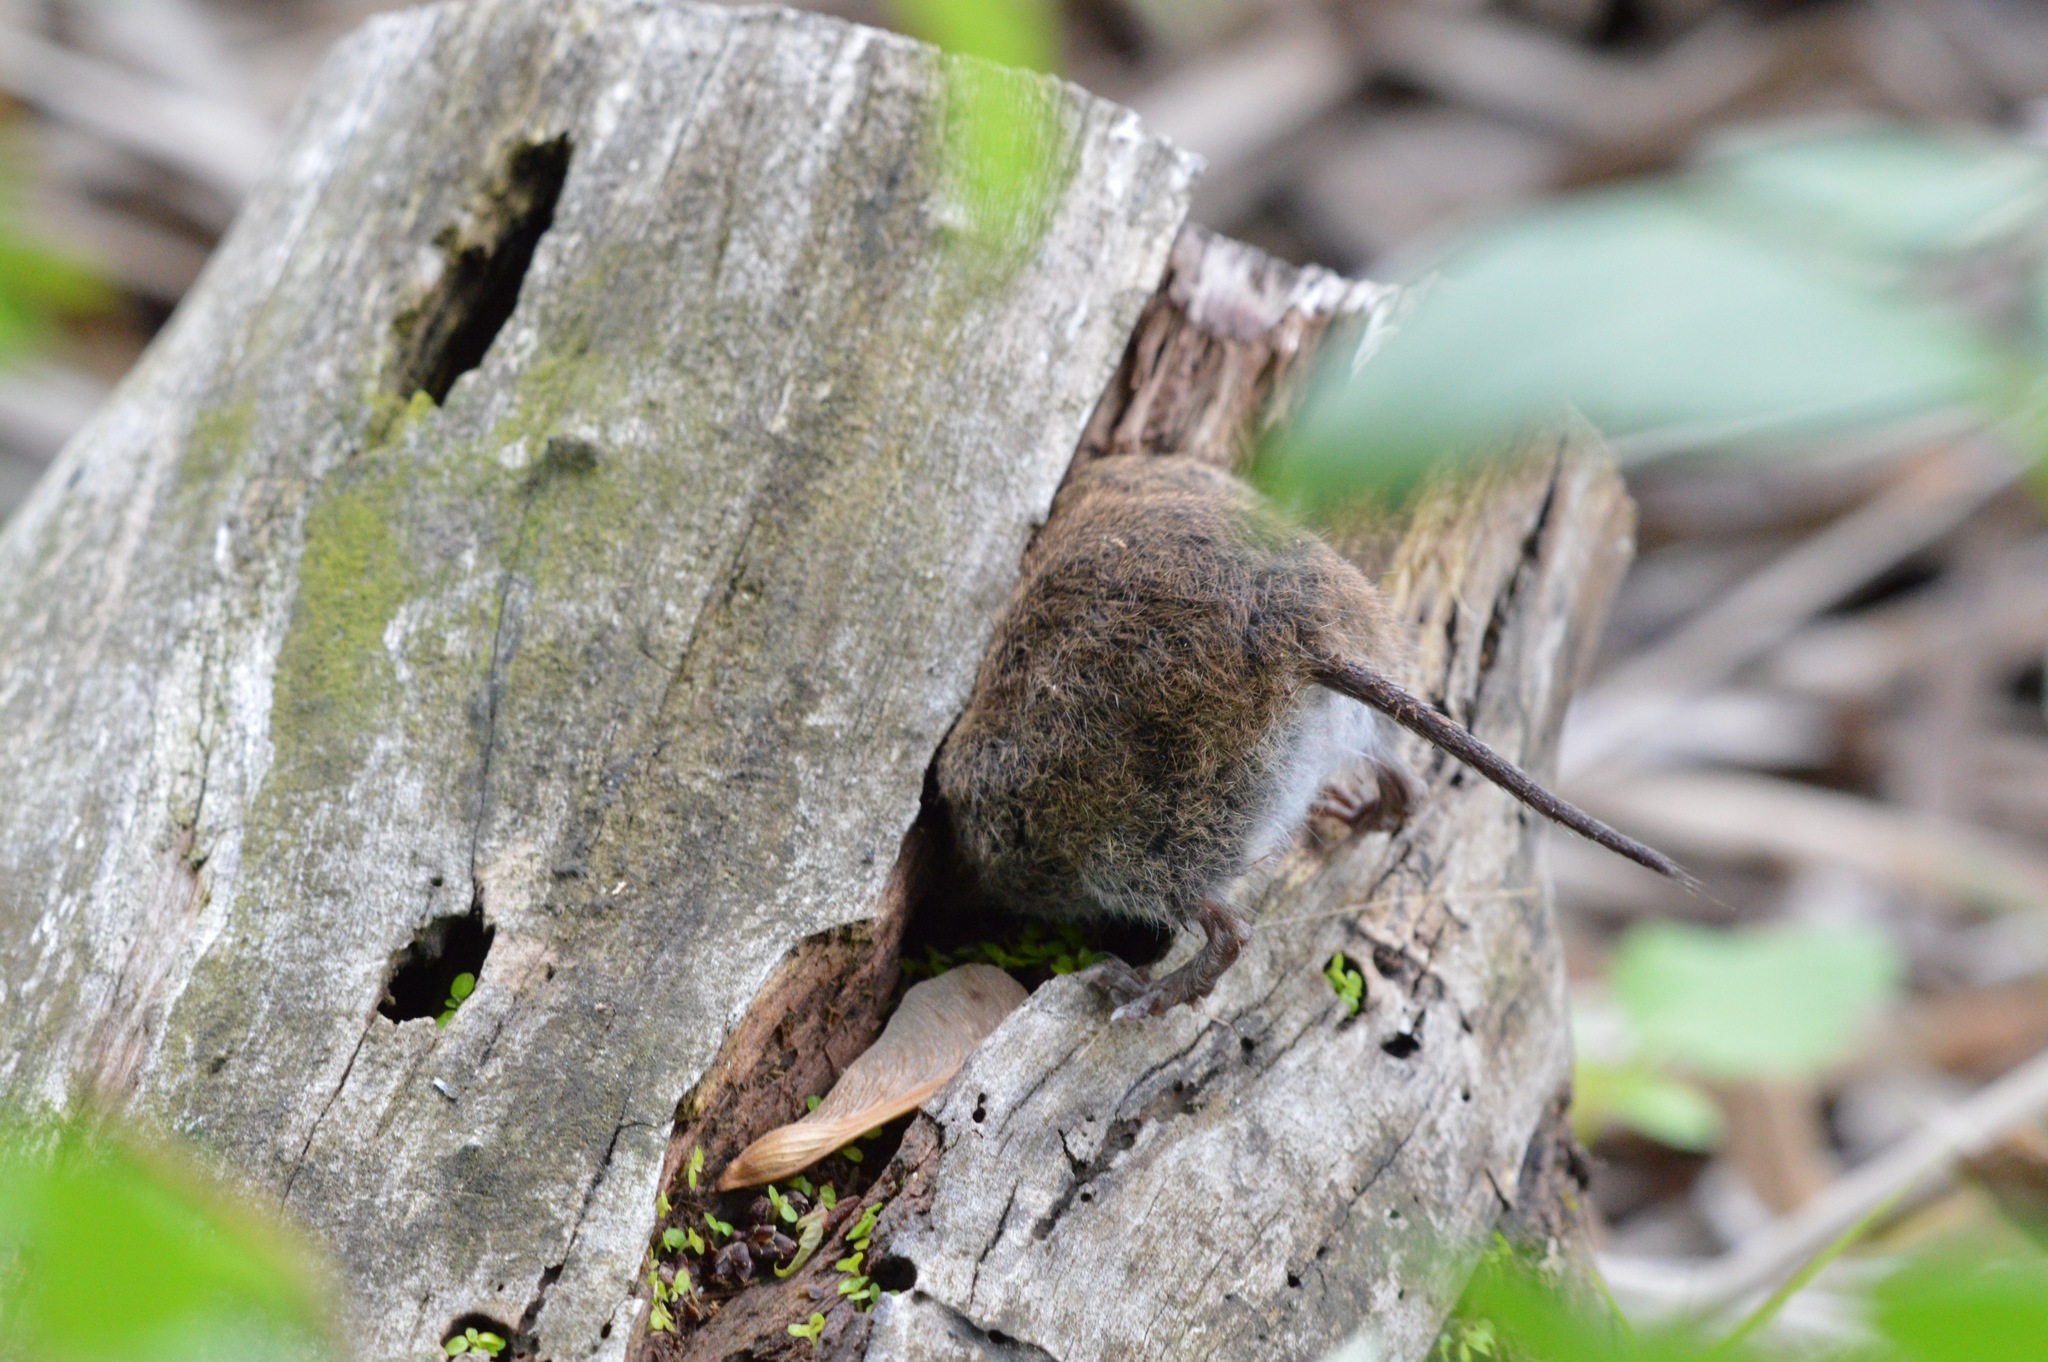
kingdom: Animalia
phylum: Chordata
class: Mammalia
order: Rodentia
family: Cricetidae
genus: Microtus
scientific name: Microtus pennsylvanicus
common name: Meadow vole
